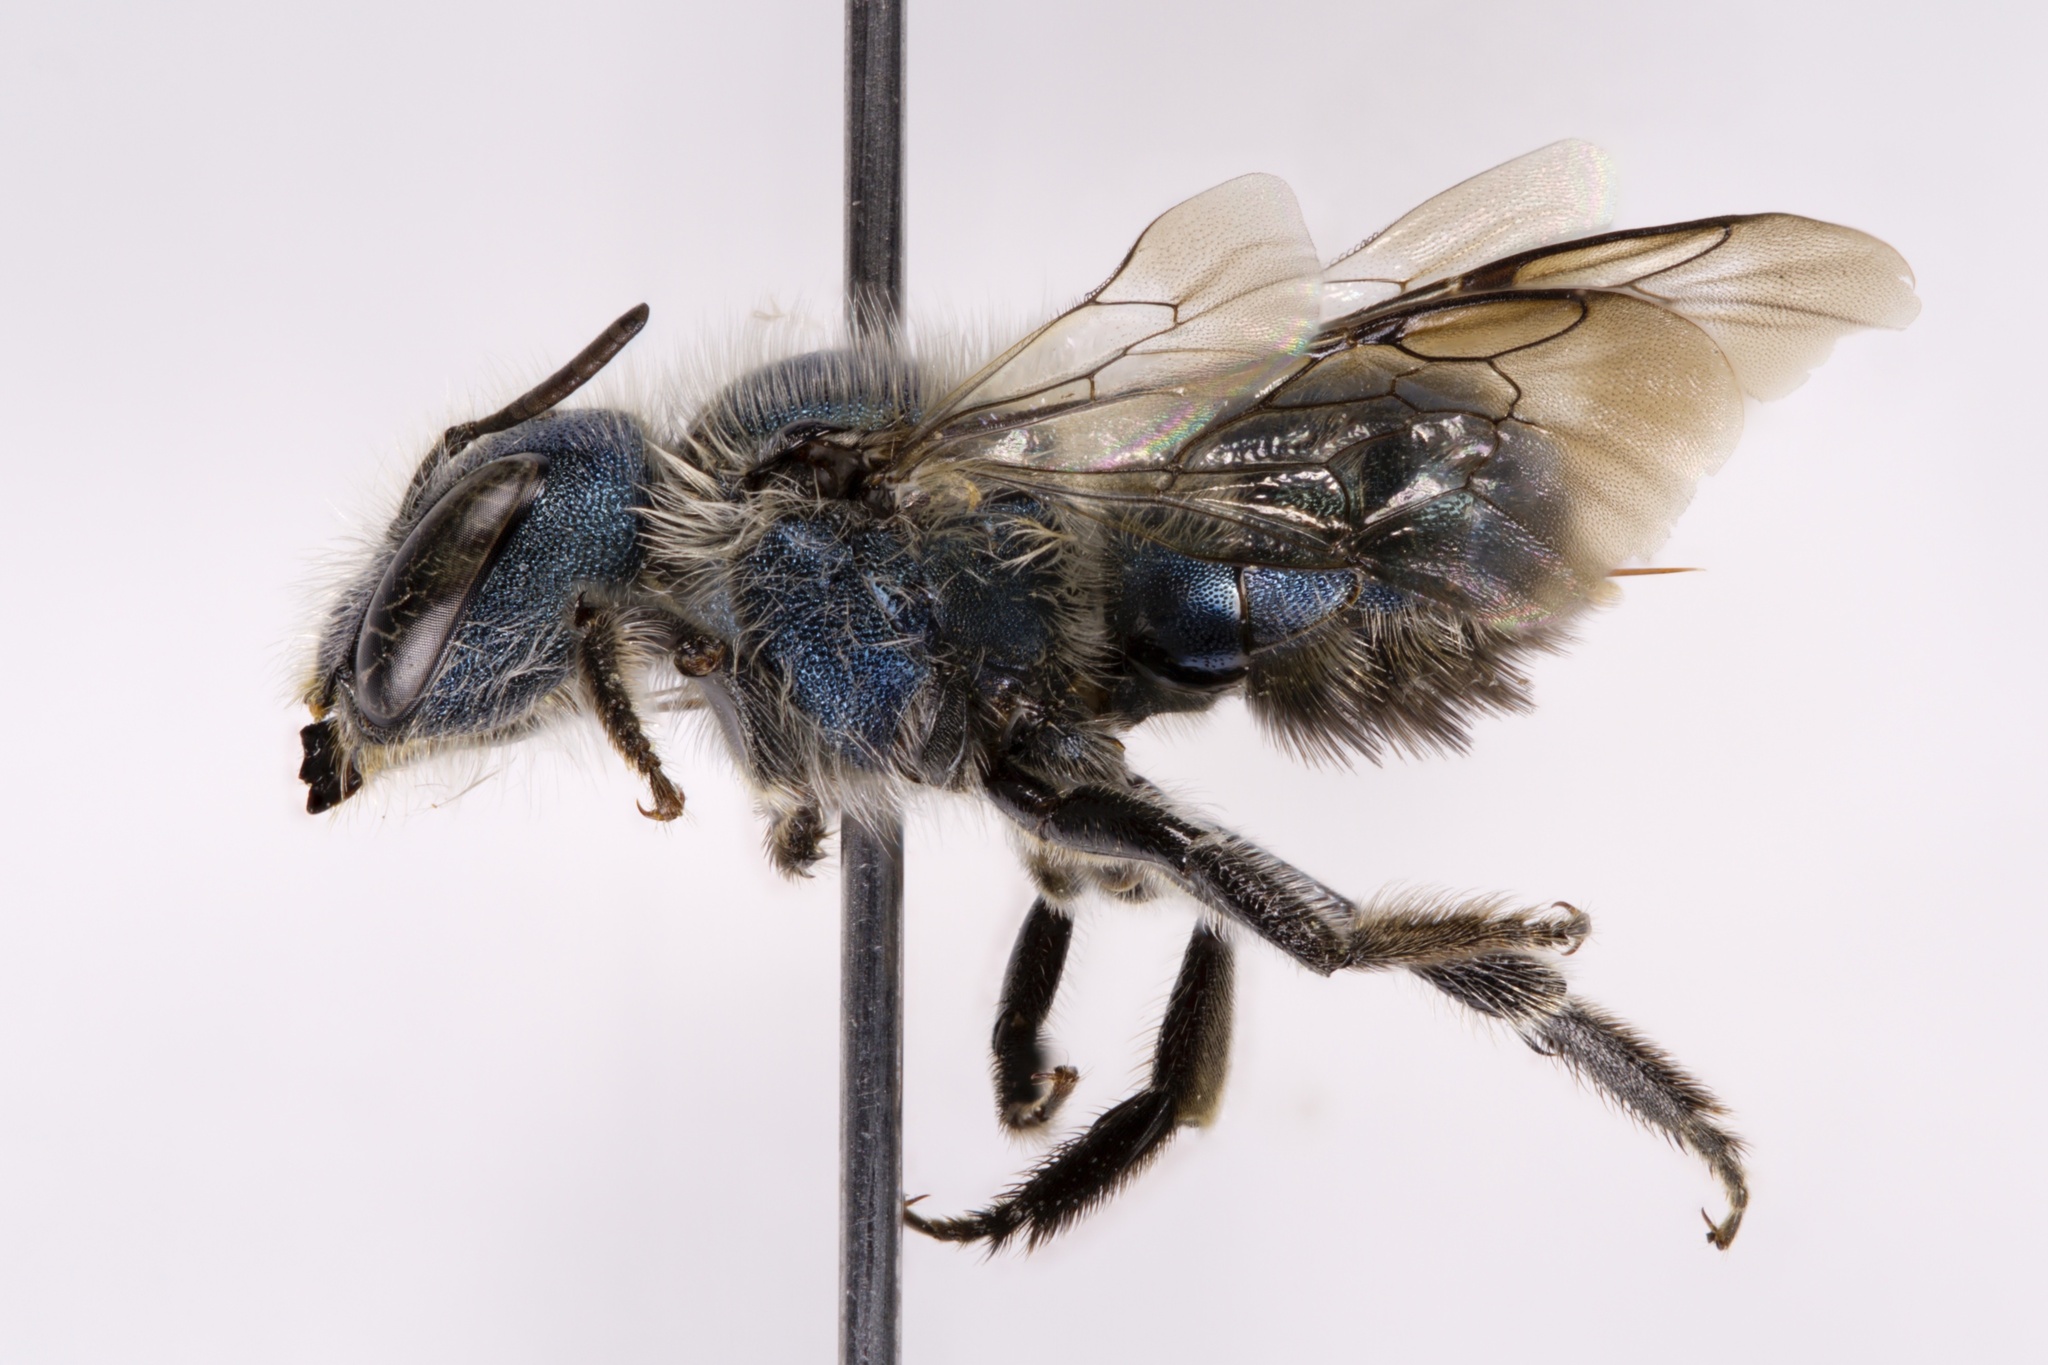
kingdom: Animalia
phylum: Arthropoda
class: Insecta
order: Hymenoptera
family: Megachilidae
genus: Osmia
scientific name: Osmia atriventris
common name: Maine blueberry bee
